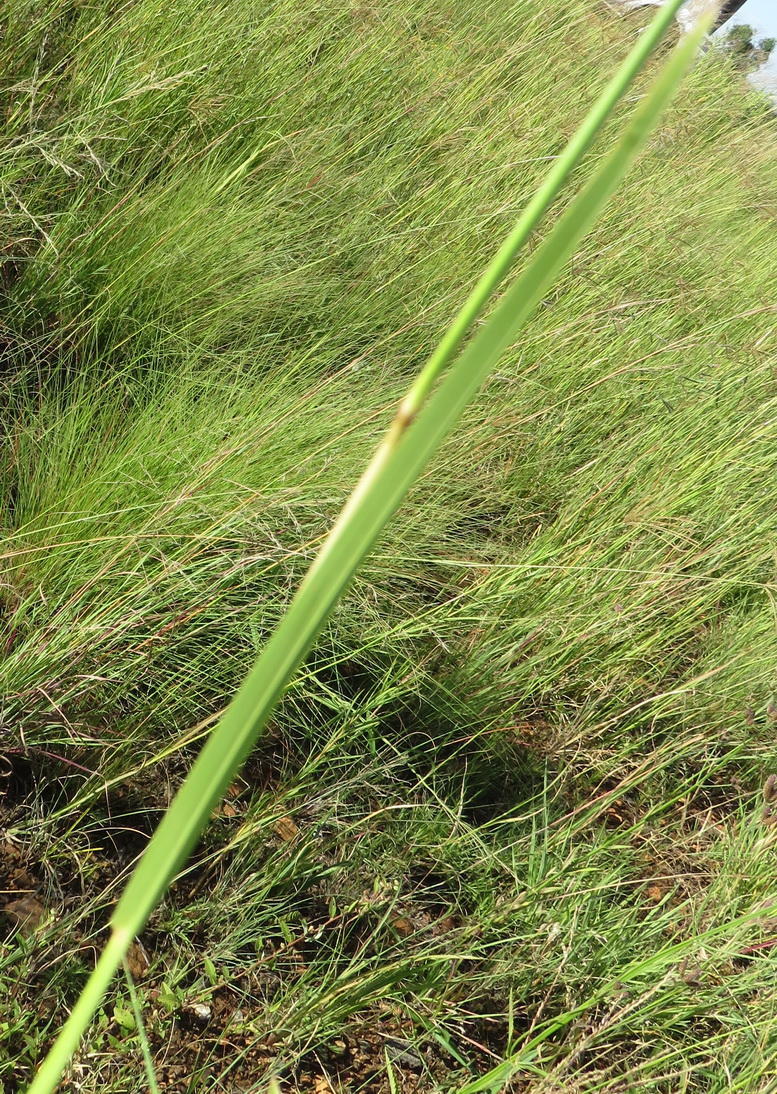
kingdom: Plantae
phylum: Tracheophyta
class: Liliopsida
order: Poales
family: Poaceae
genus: Heteropogon
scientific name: Heteropogon contortus
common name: Tanglehead
